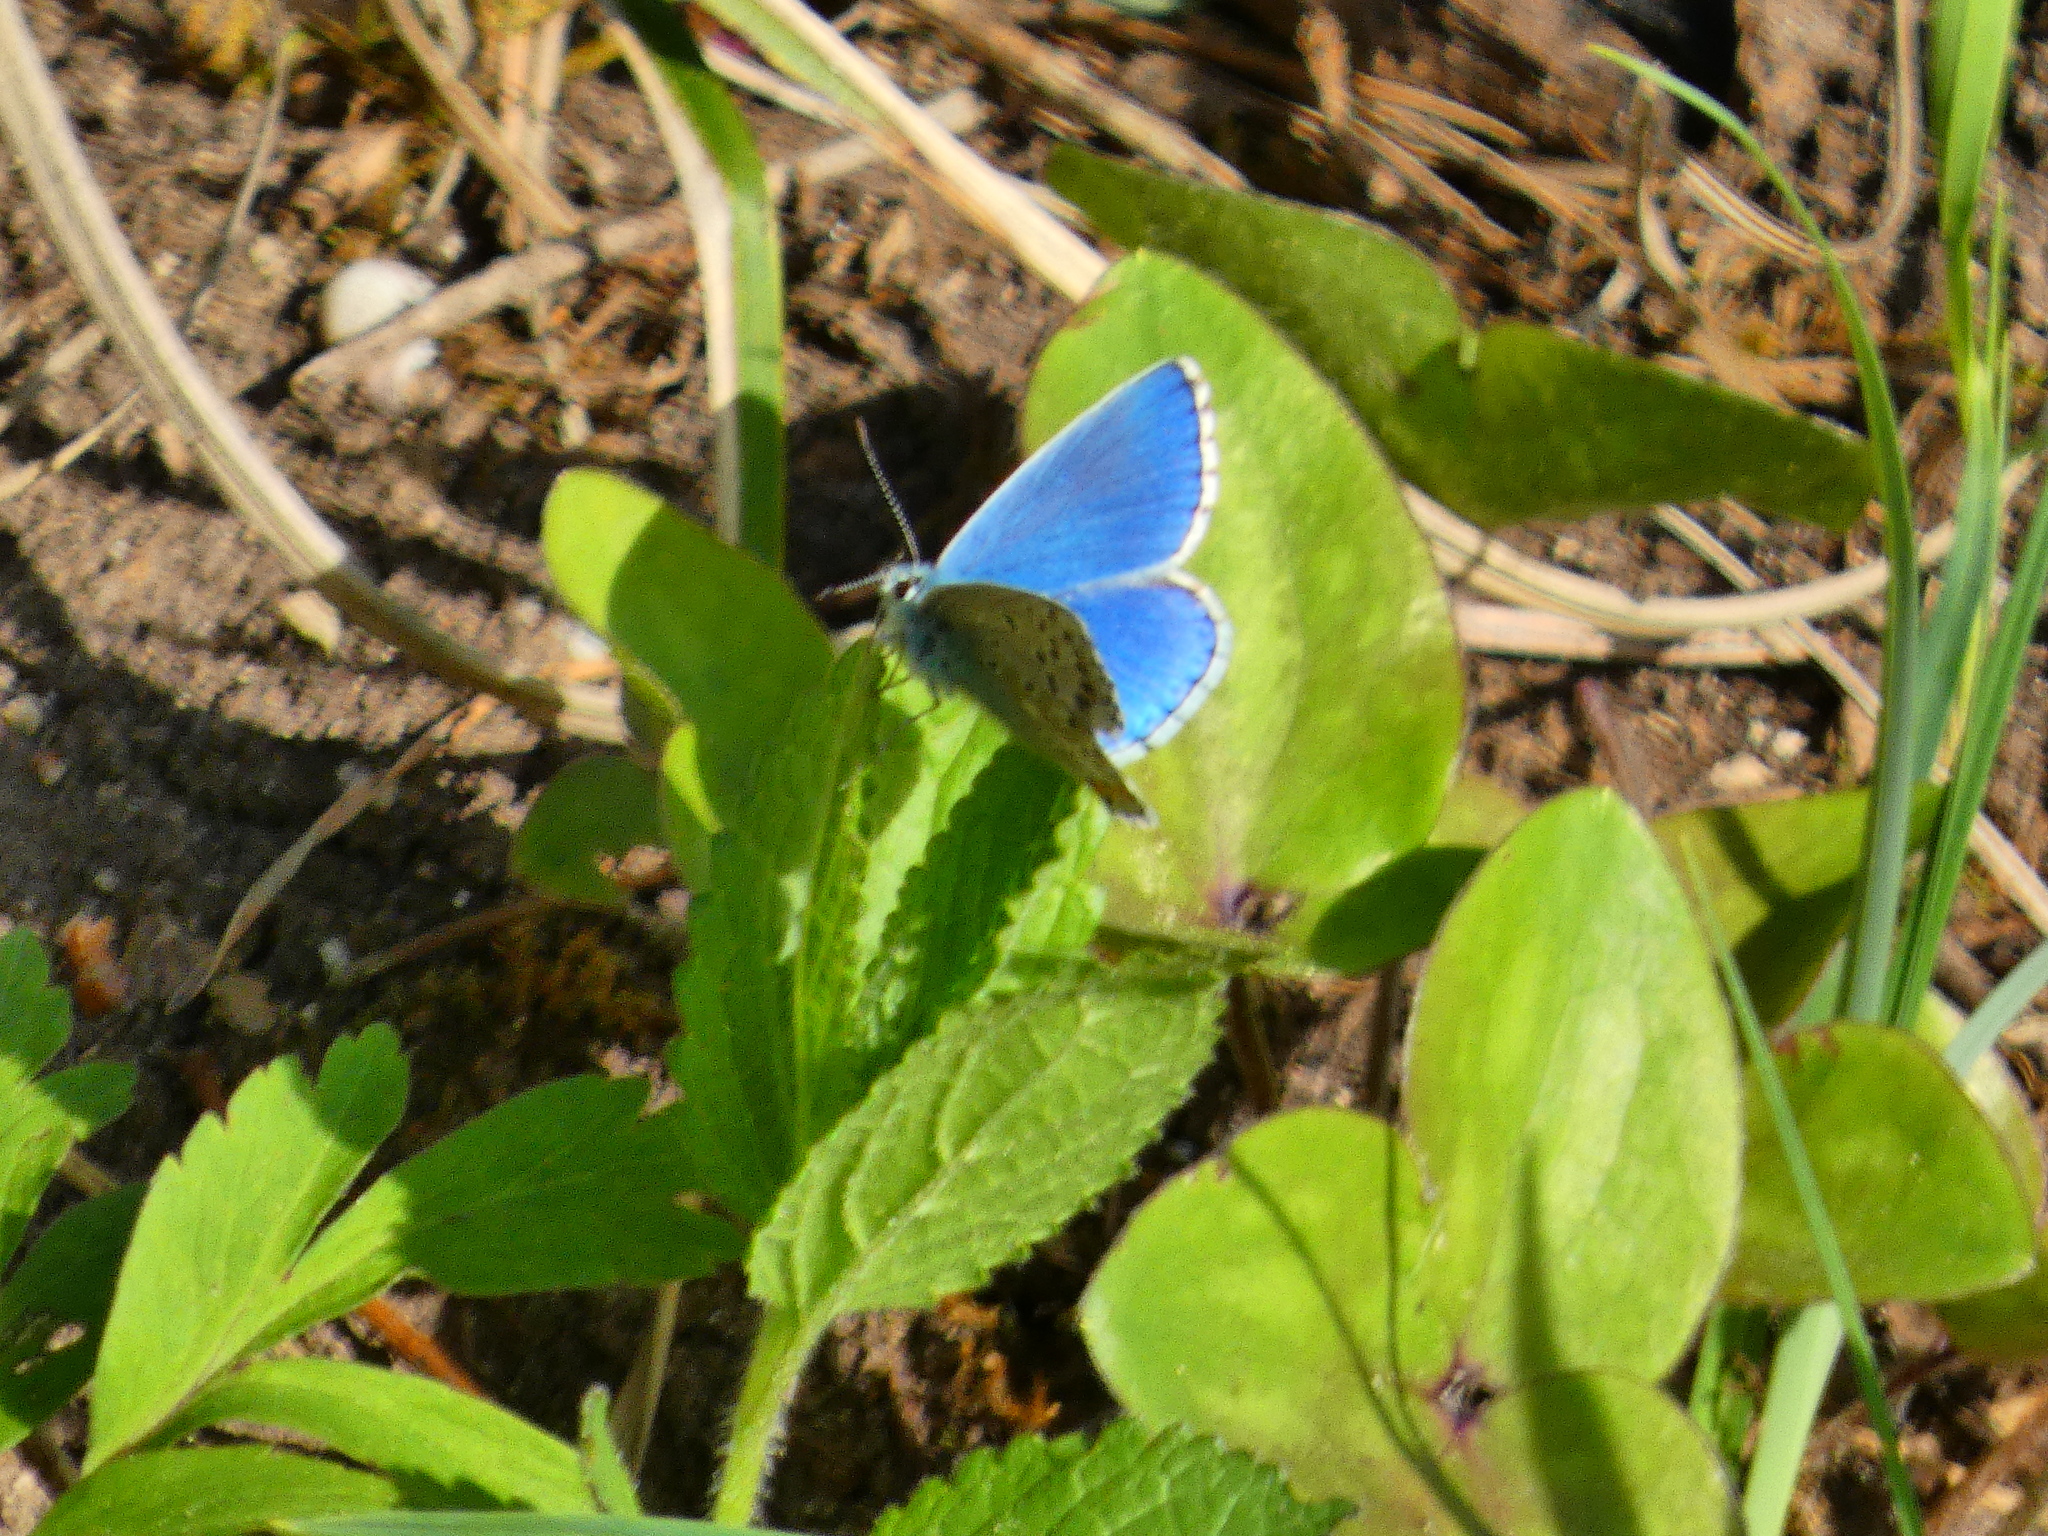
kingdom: Animalia
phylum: Arthropoda
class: Insecta
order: Lepidoptera
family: Lycaenidae
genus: Lysandra
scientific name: Lysandra bellargus
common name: Adonis blue
